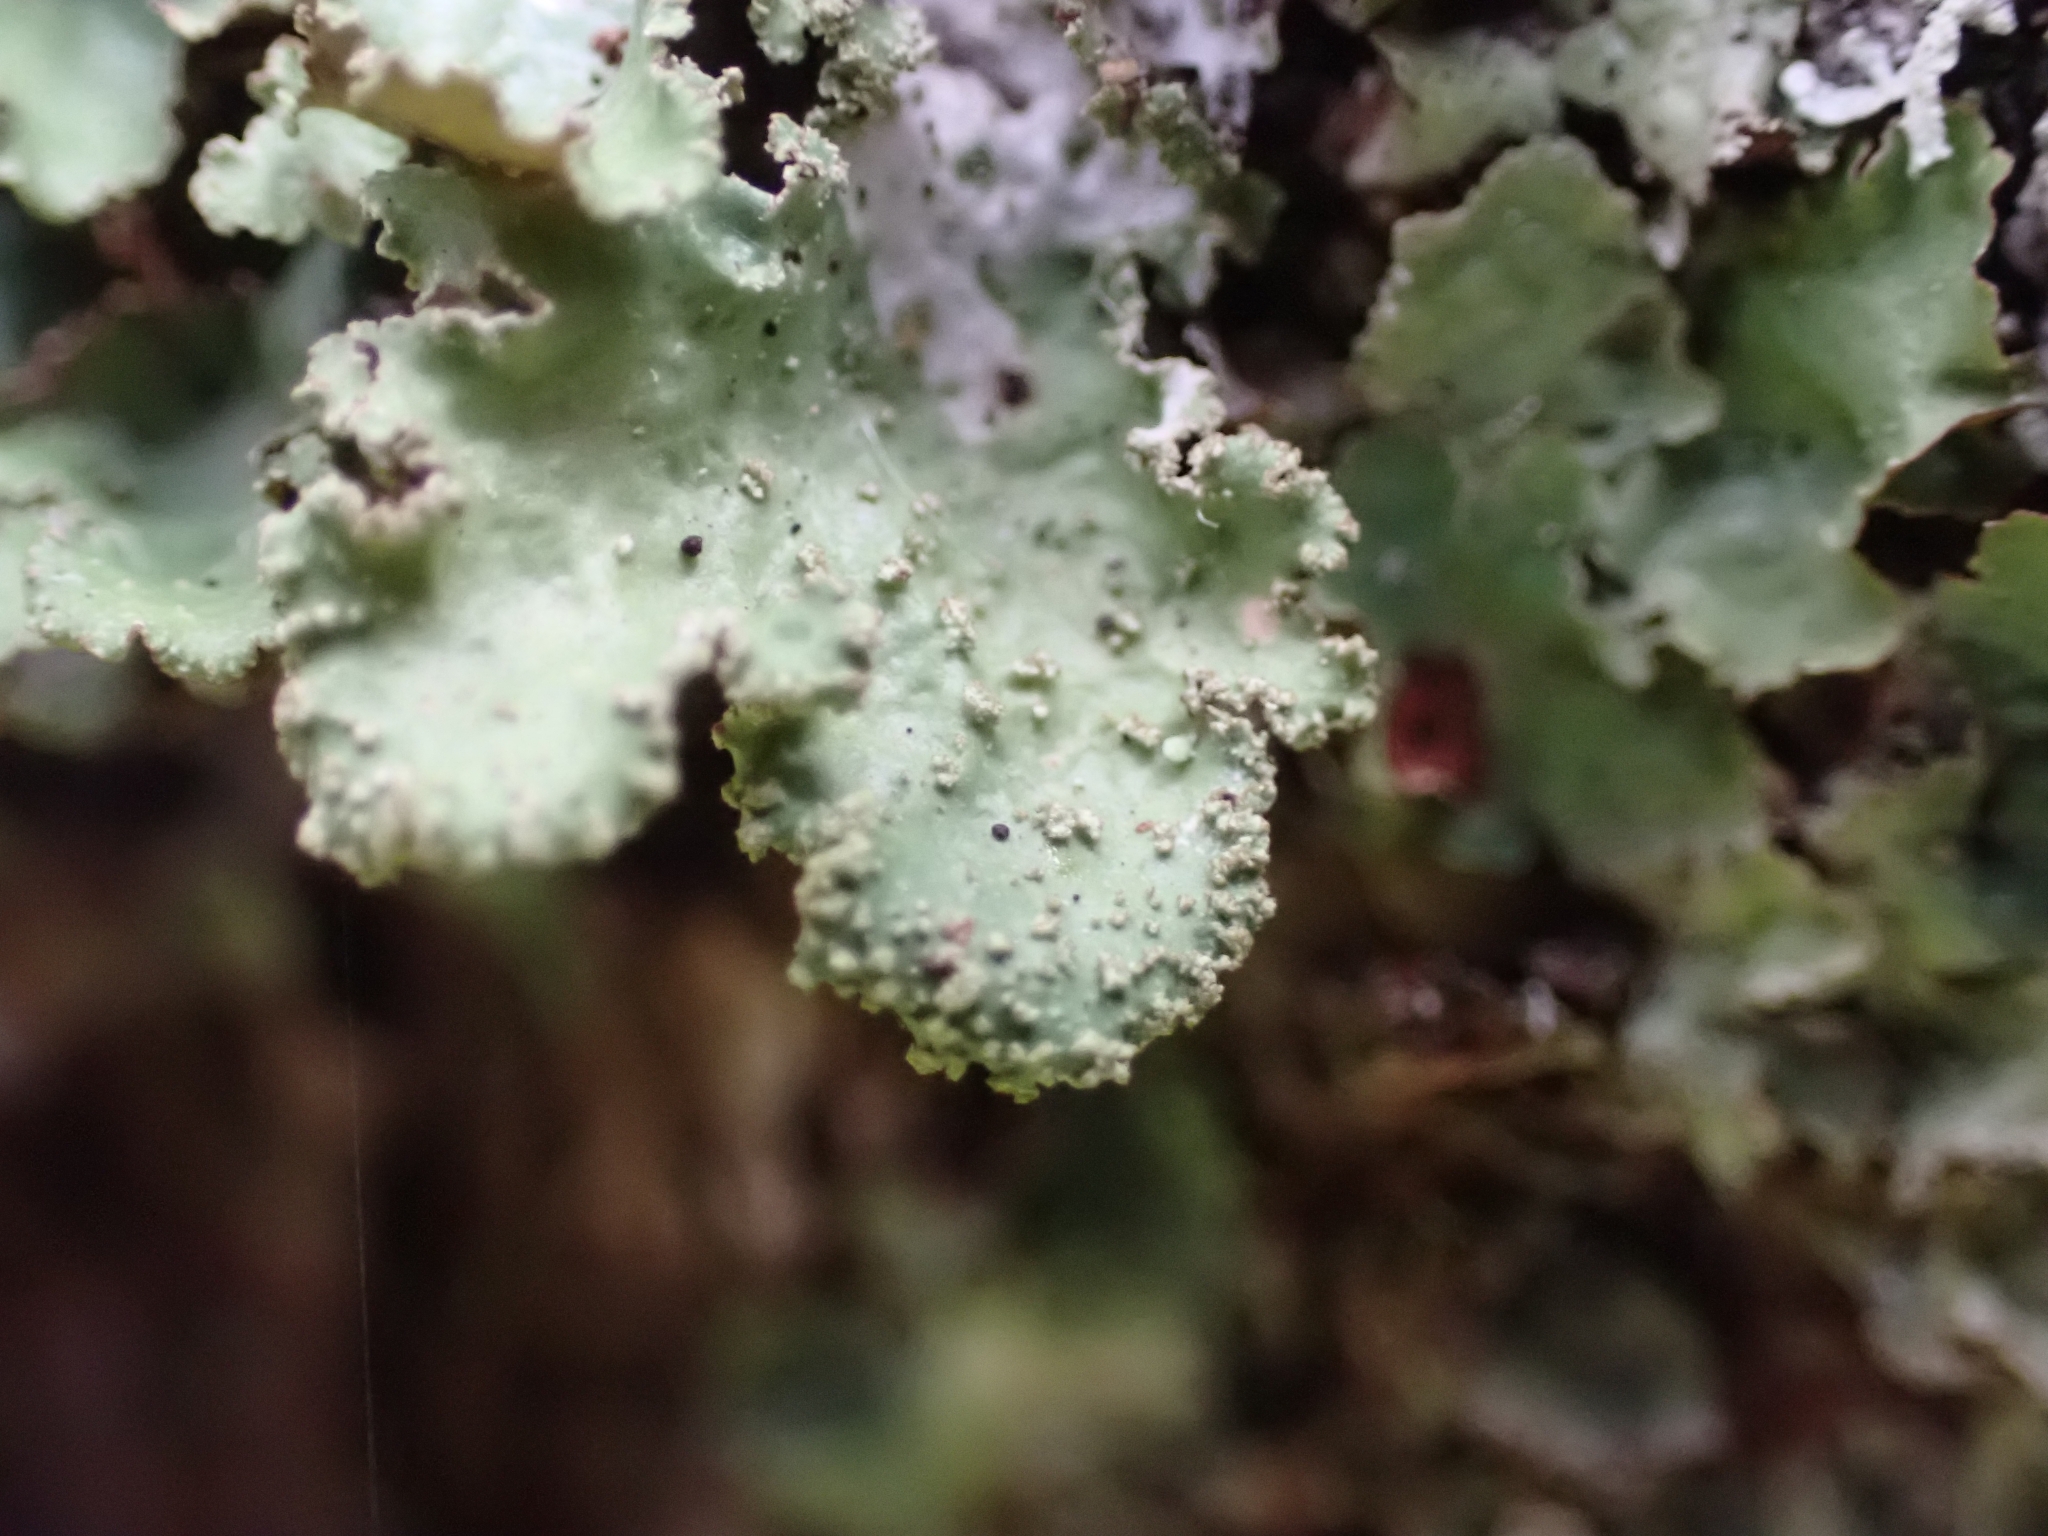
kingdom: Fungi
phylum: Ascomycota
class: Lecanoromycetes
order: Lecanorales
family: Parmeliaceae
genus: Platismatia
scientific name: Platismatia glauca
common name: Varied rag lichen
